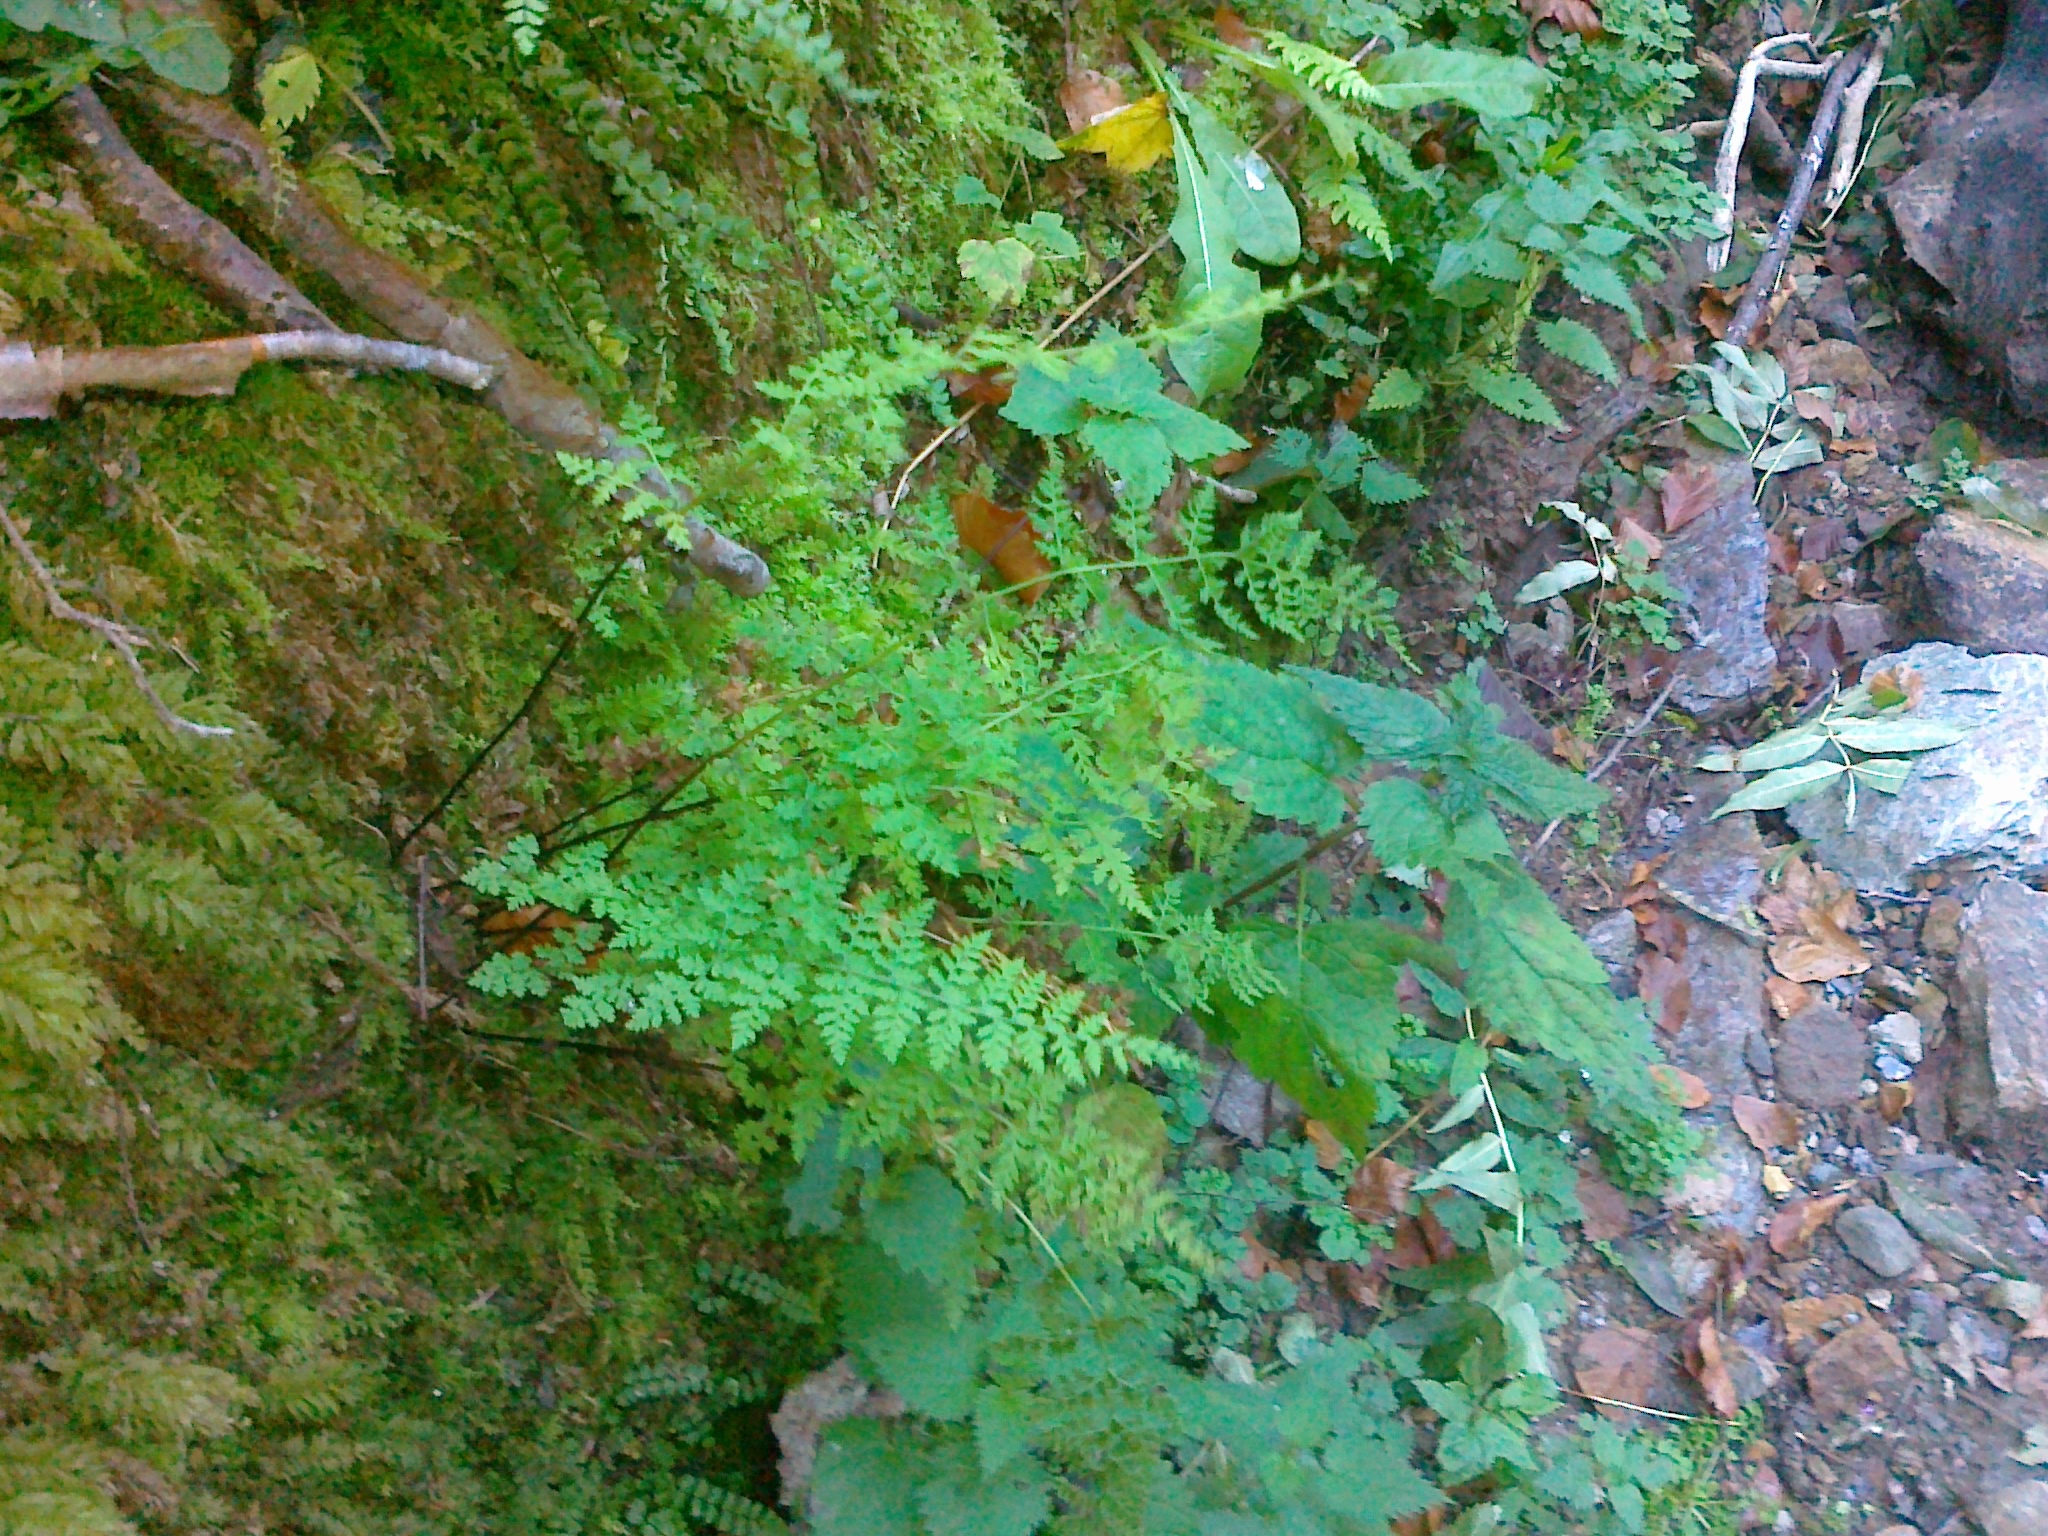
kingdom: Plantae
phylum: Tracheophyta
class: Polypodiopsida
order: Polypodiales
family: Cystopteridaceae
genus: Cystopteris
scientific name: Cystopteris fragilis
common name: Brittle bladder fern
